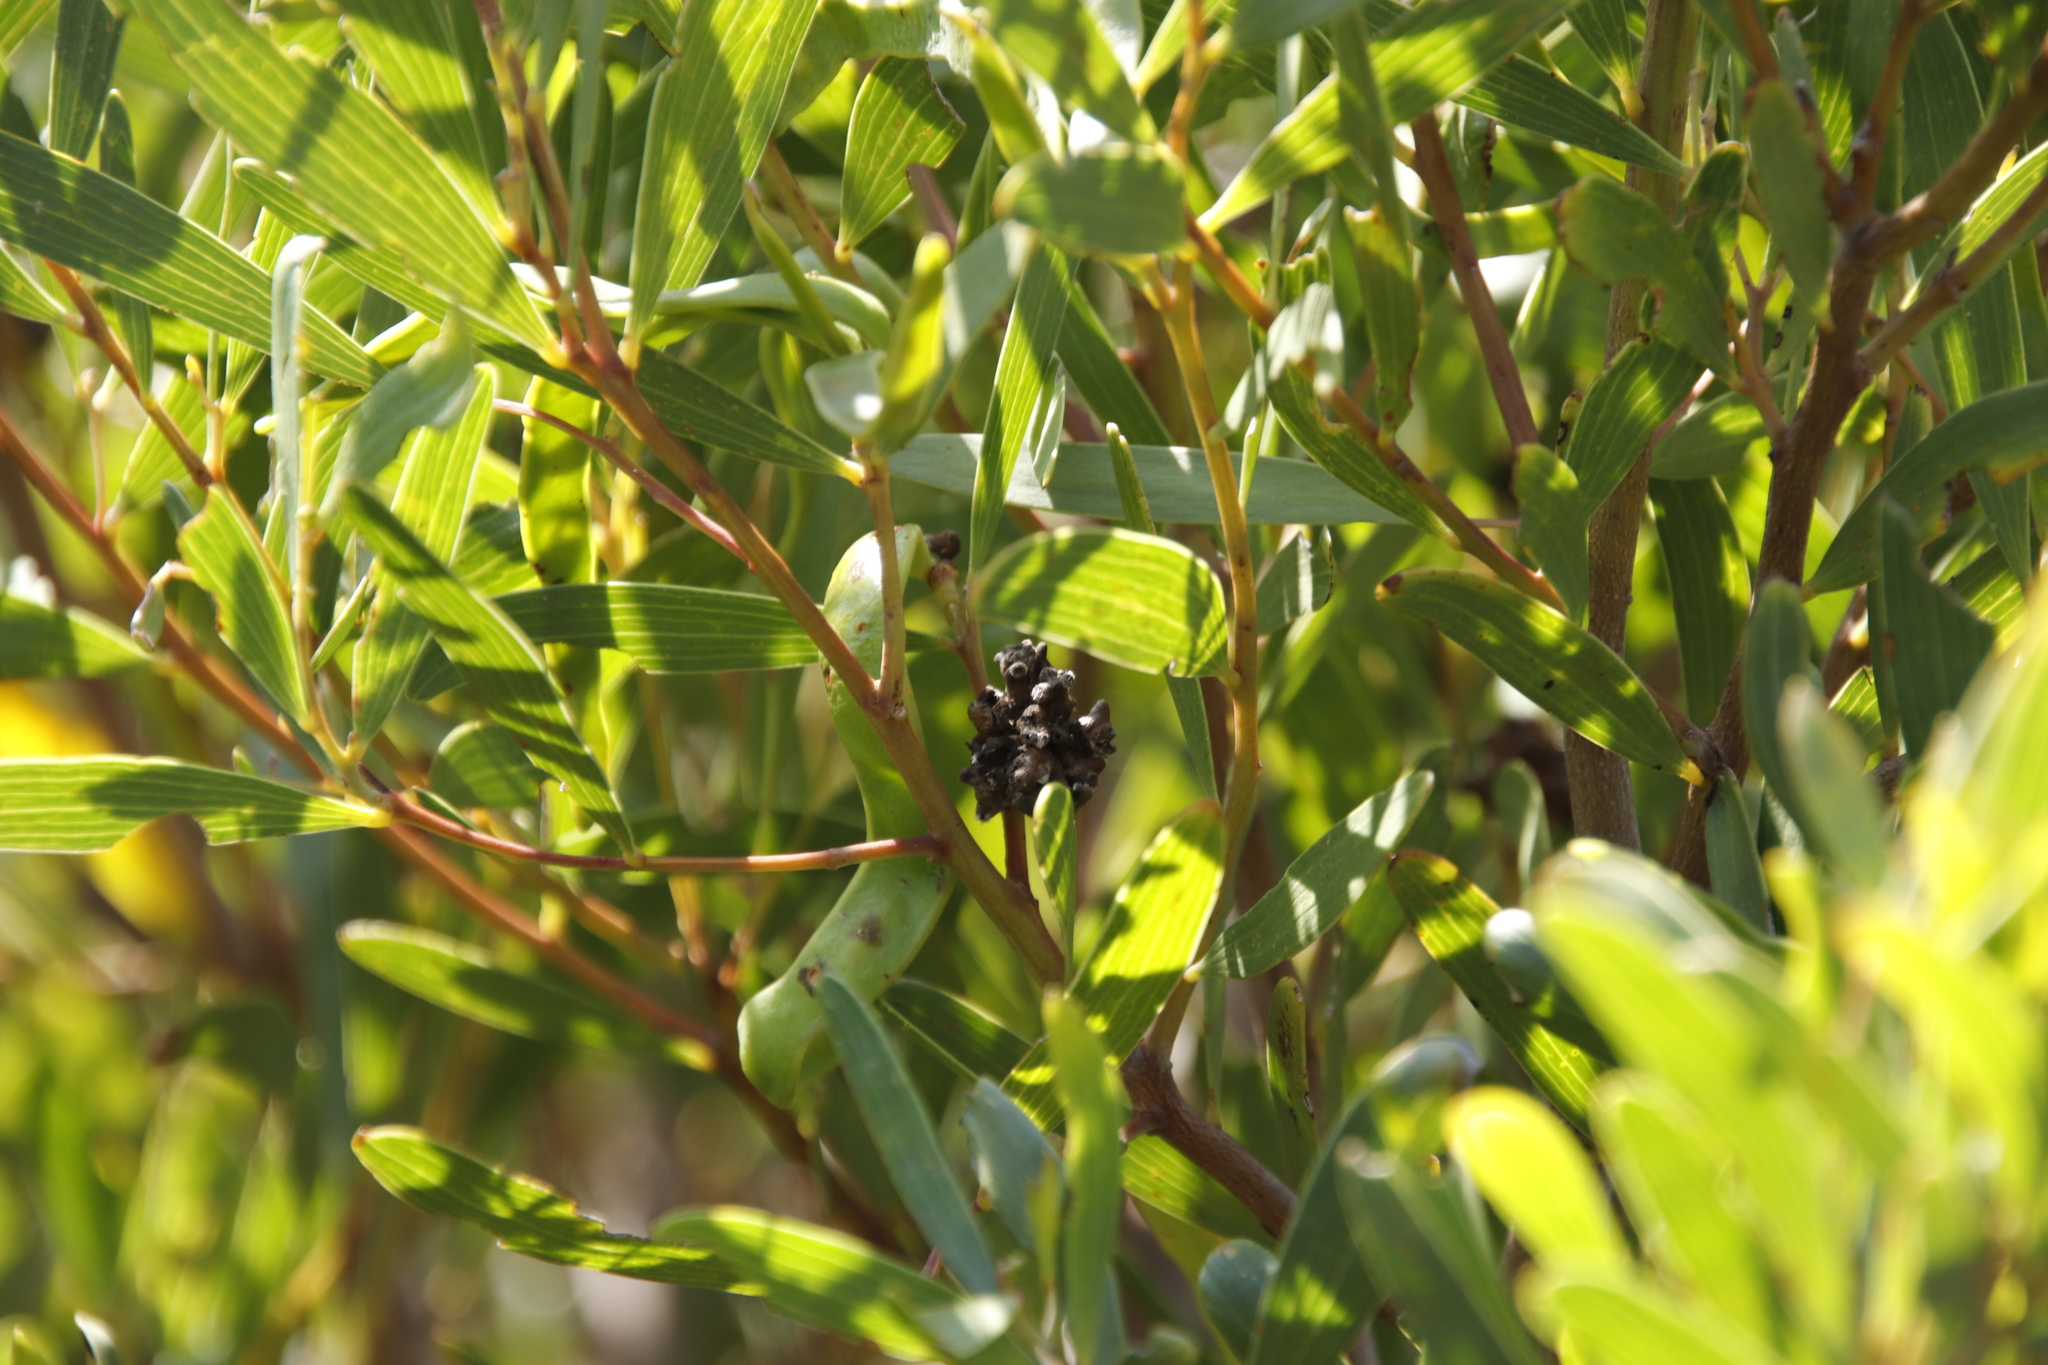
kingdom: Plantae
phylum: Tracheophyta
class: Magnoliopsida
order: Fabales
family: Fabaceae
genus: Acacia
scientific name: Acacia cyclops
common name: Coastal wattle
